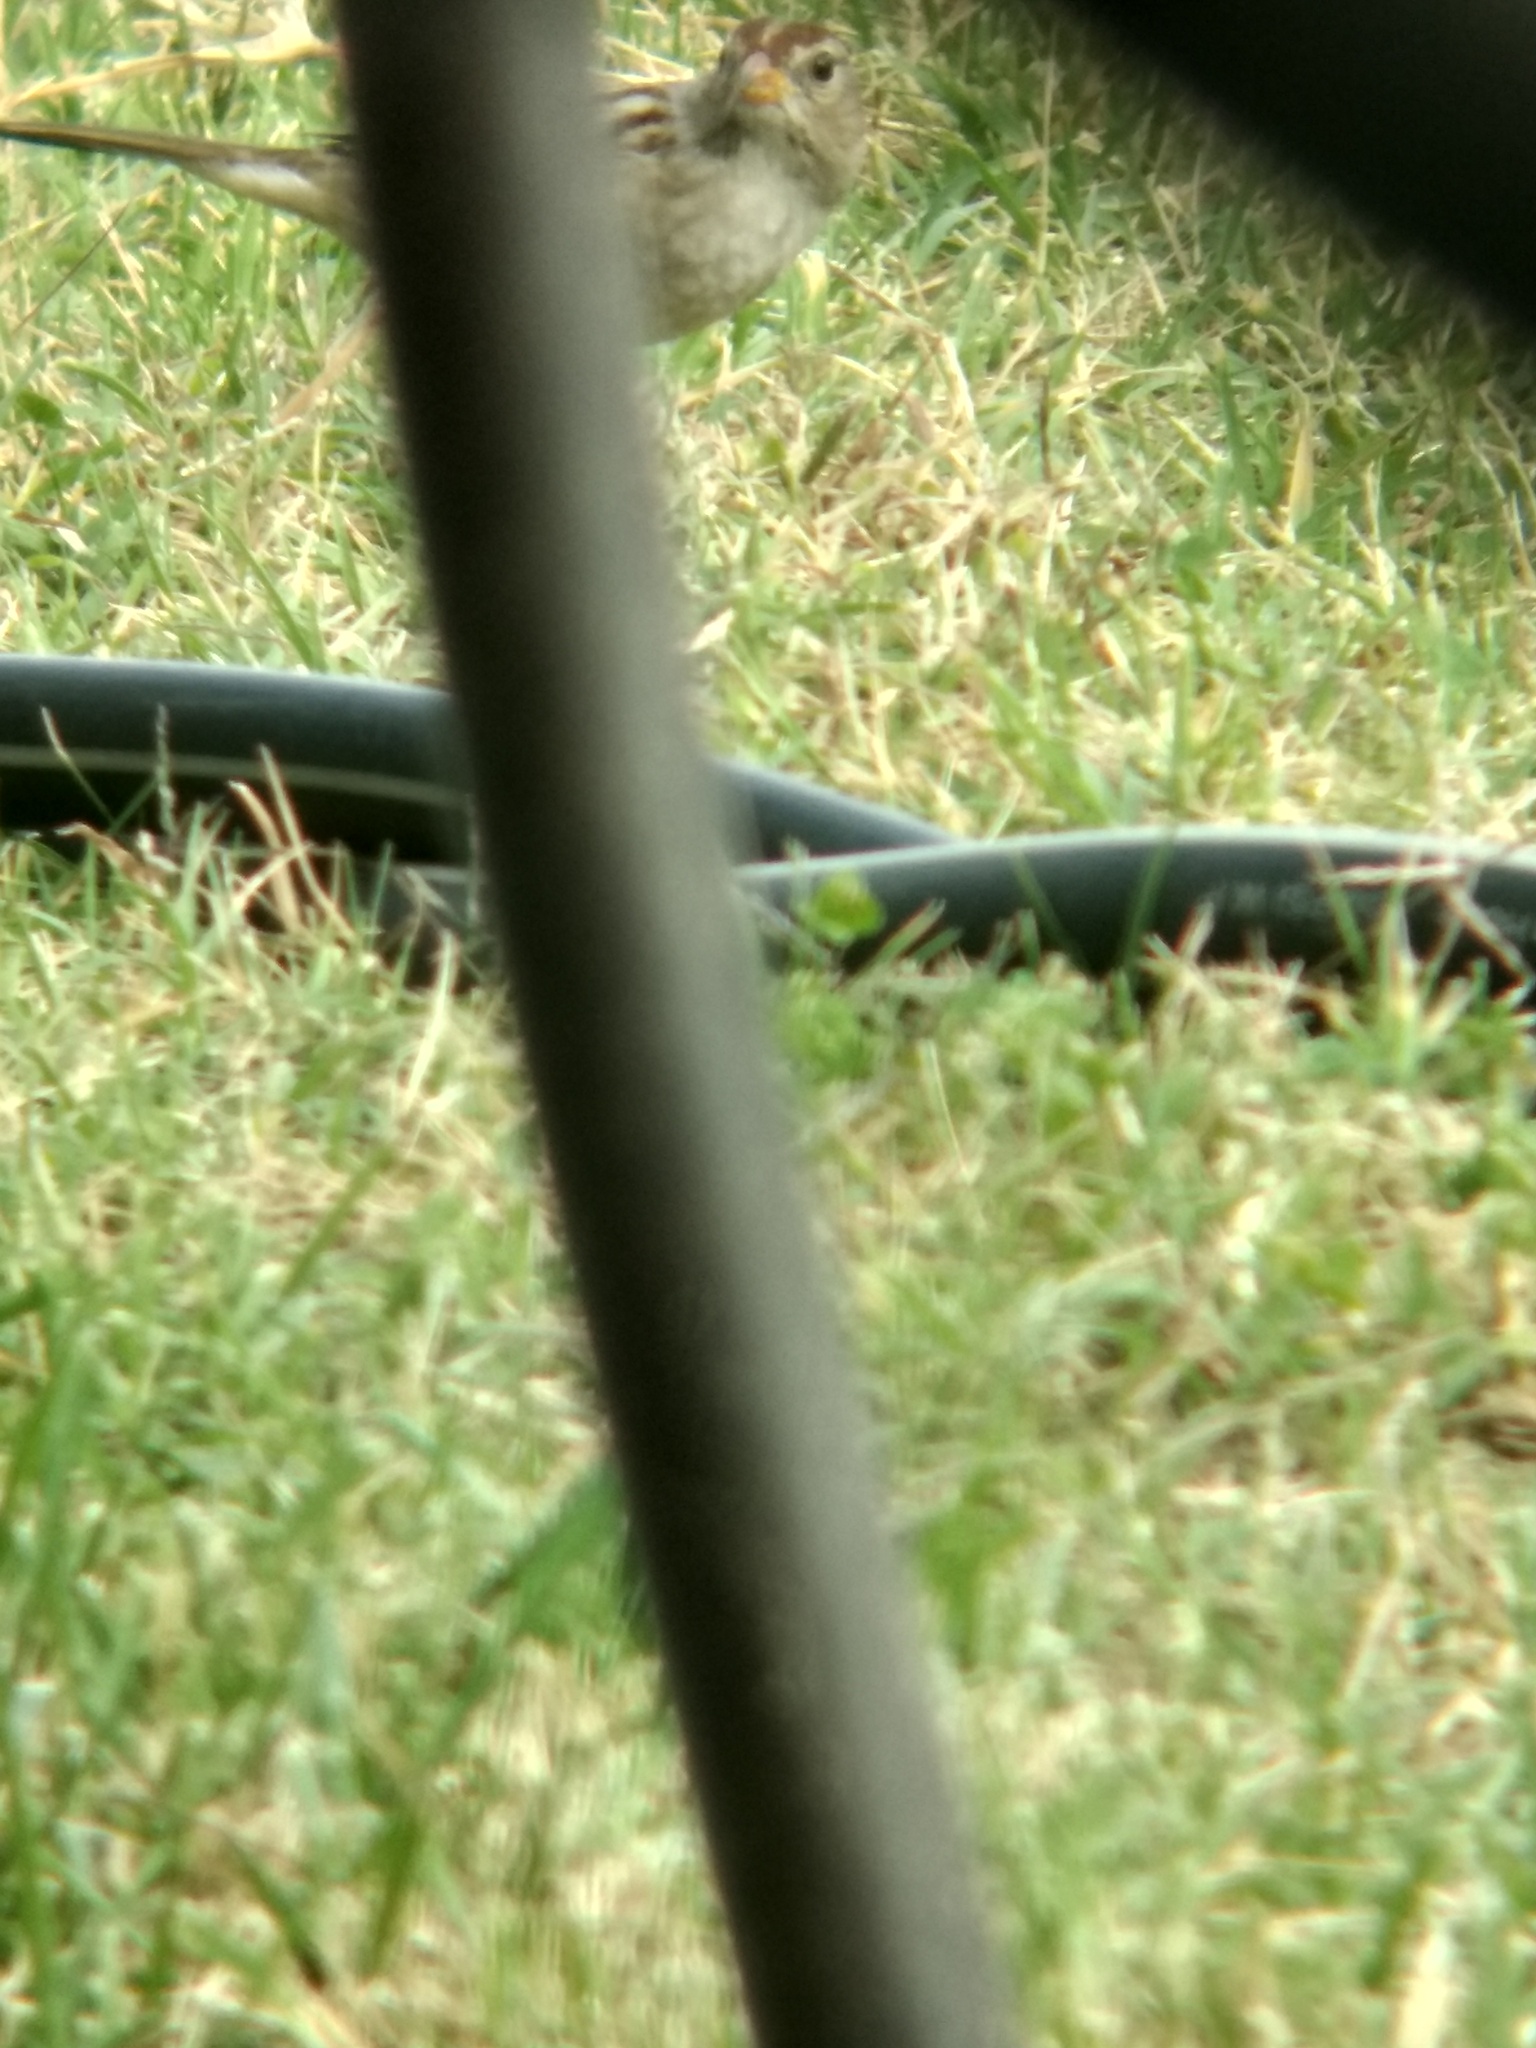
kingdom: Animalia
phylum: Chordata
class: Aves
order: Passeriformes
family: Passerellidae
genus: Zonotrichia
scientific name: Zonotrichia leucophrys
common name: White-crowned sparrow
